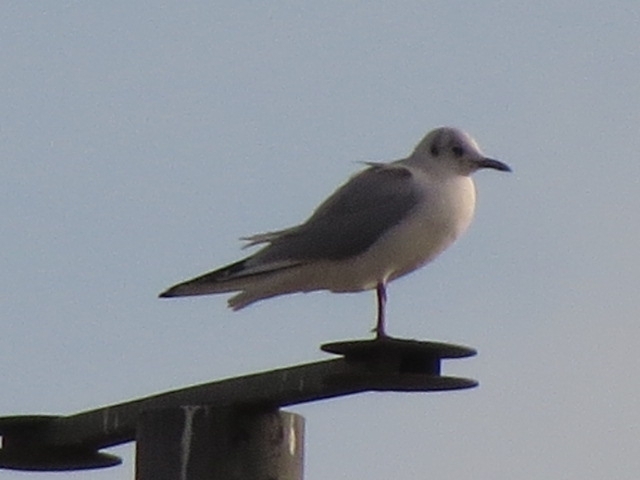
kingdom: Animalia
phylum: Chordata
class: Aves
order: Charadriiformes
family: Laridae
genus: Chroicocephalus
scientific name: Chroicocephalus ridibundus
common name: Black-headed gull
